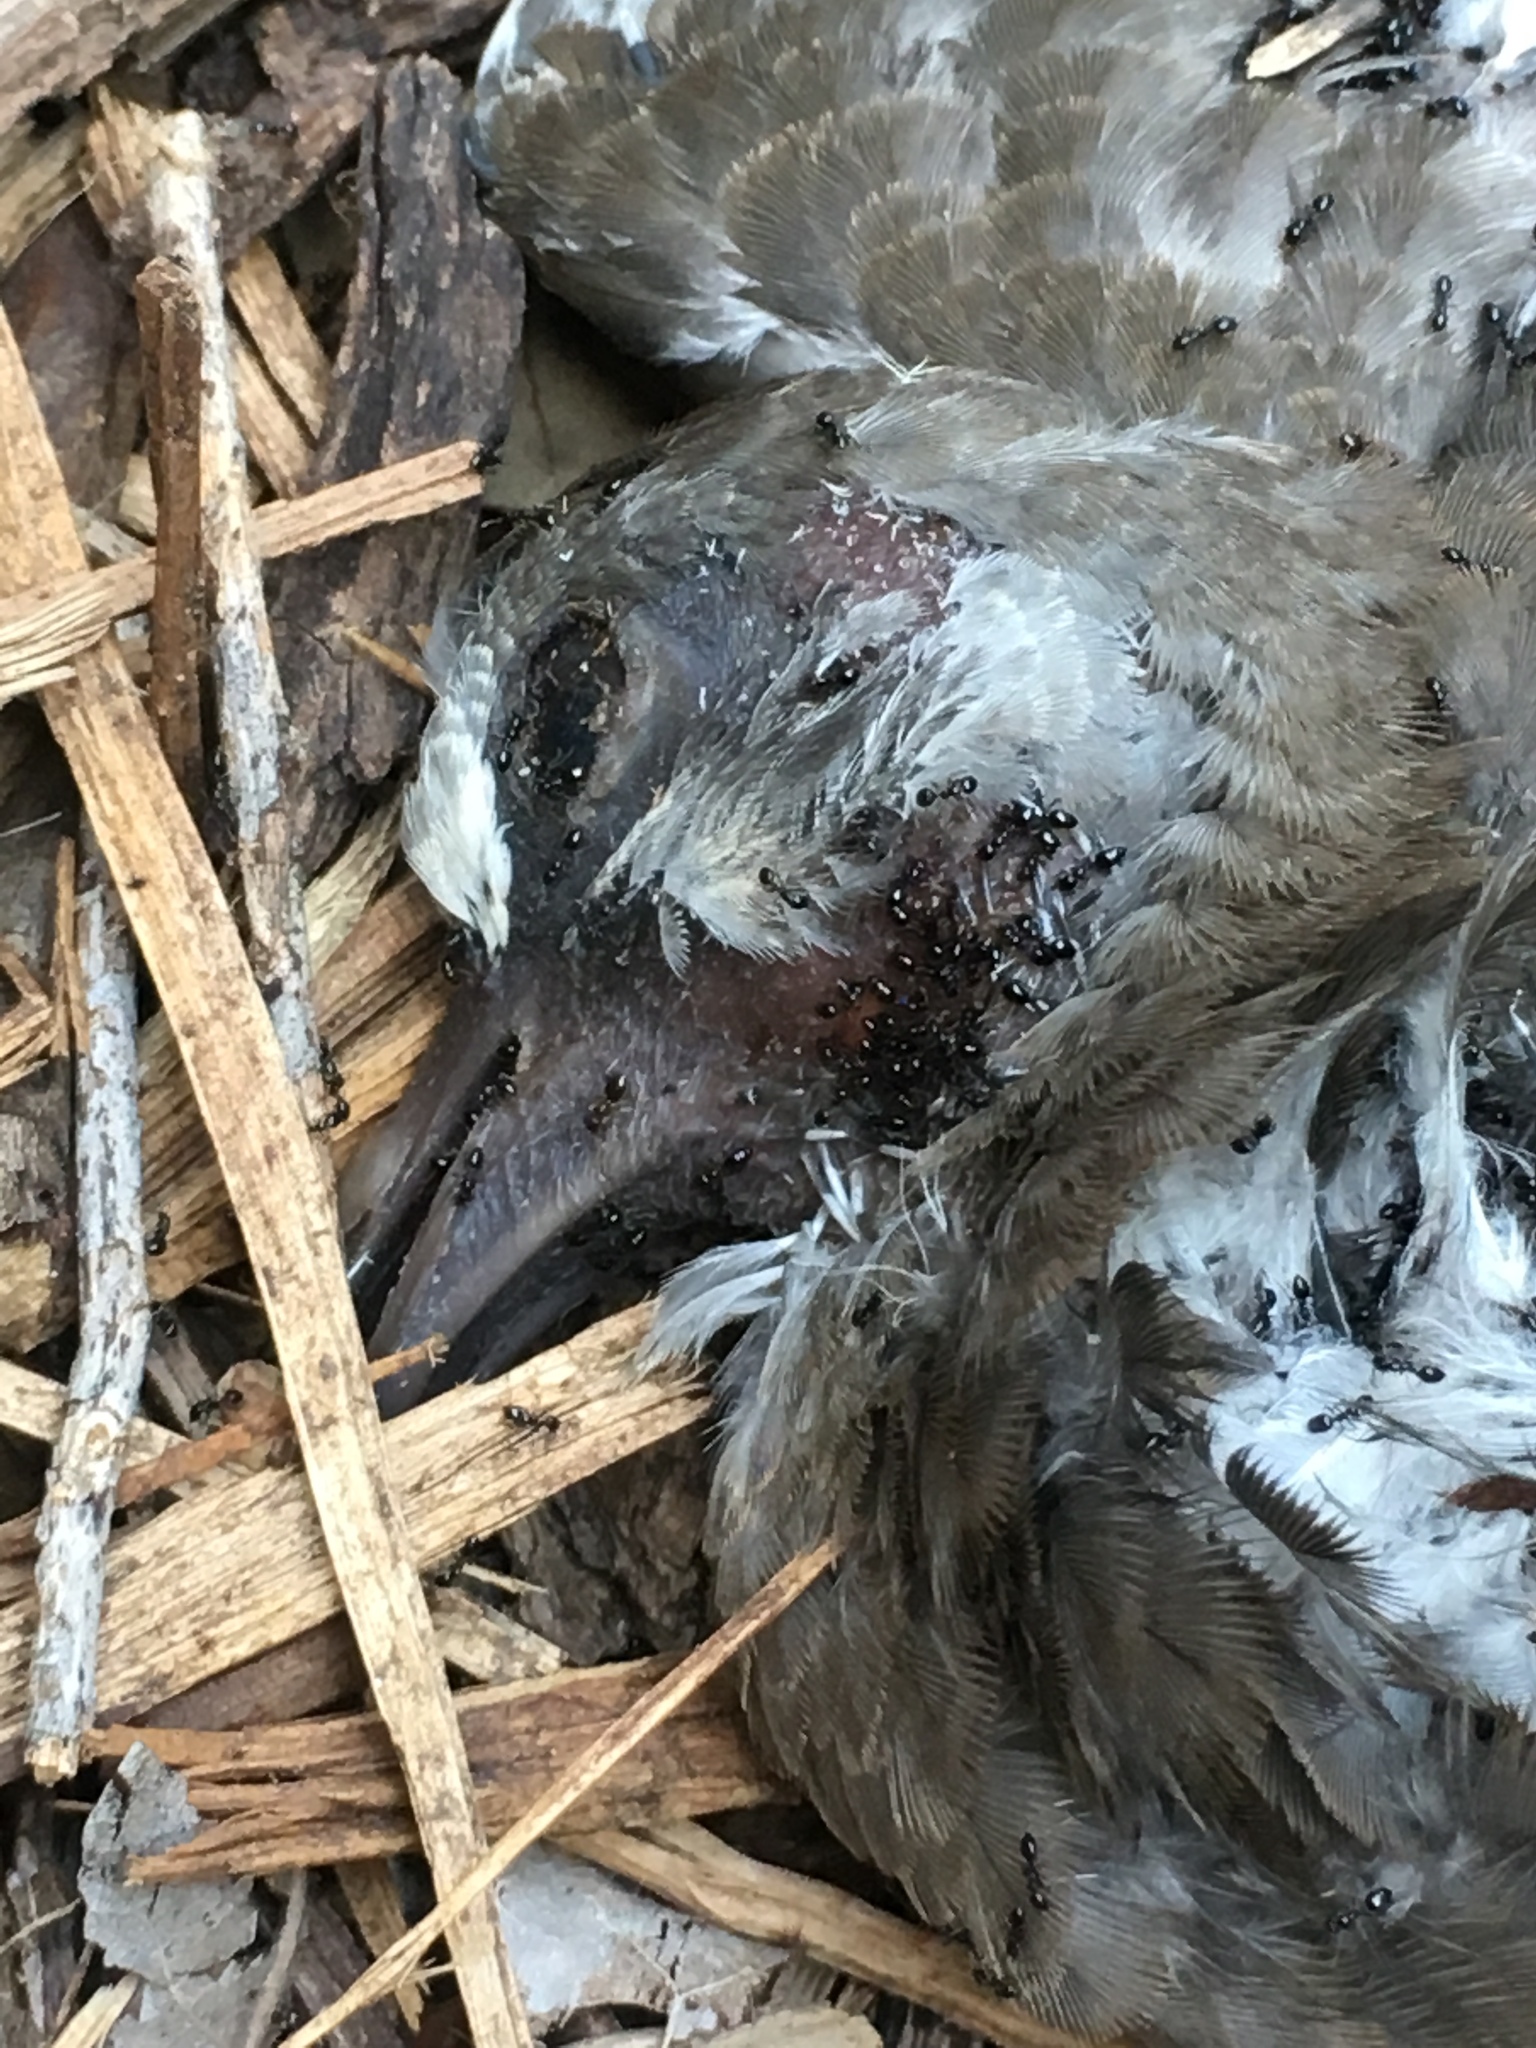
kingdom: Animalia
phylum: Chordata
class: Aves
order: Columbiformes
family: Columbidae
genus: Zenaida
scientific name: Zenaida asiatica
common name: White-winged dove
